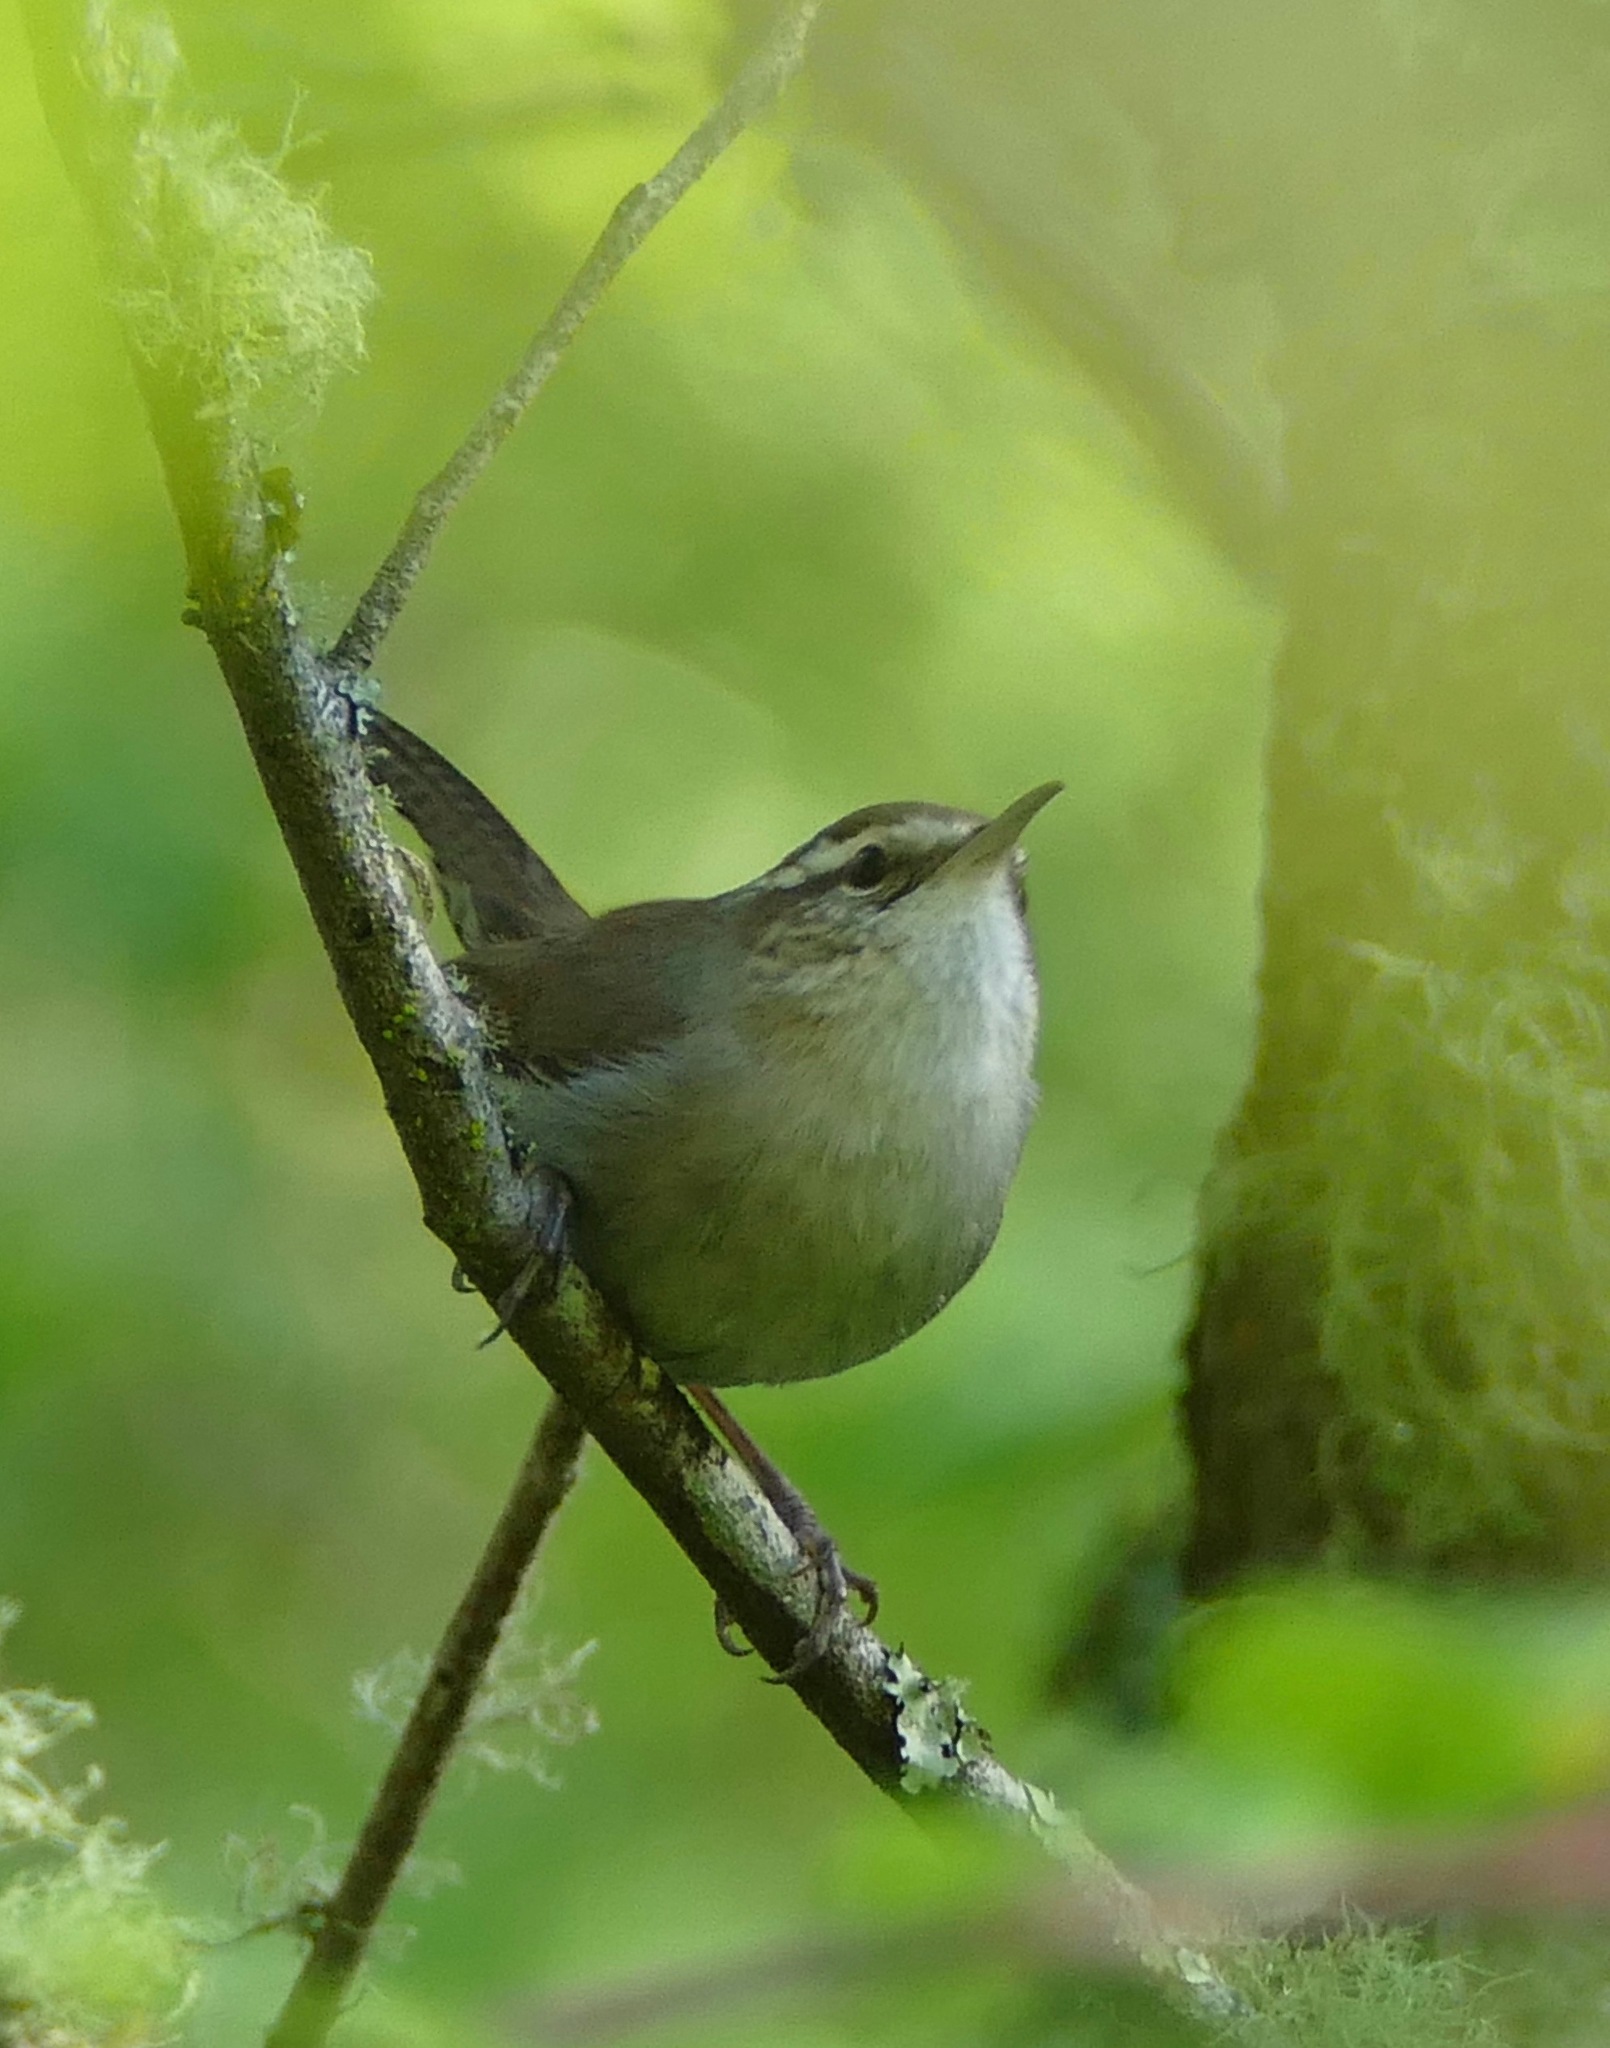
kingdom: Animalia
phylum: Chordata
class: Aves
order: Passeriformes
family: Troglodytidae
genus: Thryomanes
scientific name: Thryomanes bewickii
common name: Bewick's wren
